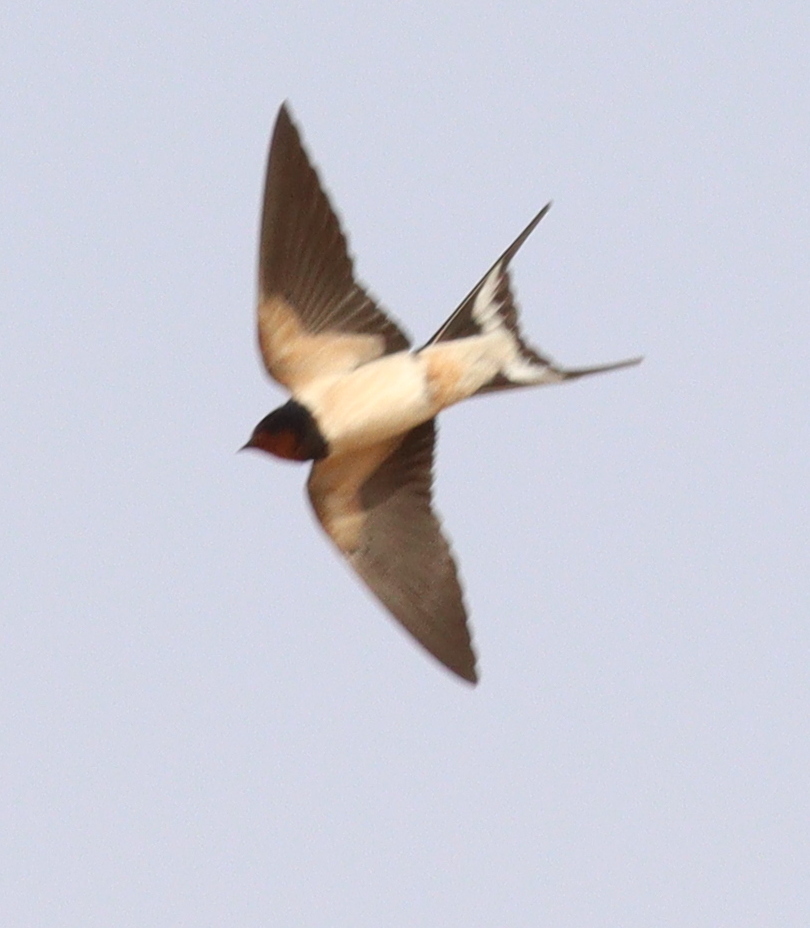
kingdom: Animalia
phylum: Chordata
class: Aves
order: Passeriformes
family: Hirundinidae
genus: Hirundo
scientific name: Hirundo rustica
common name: Barn swallow
